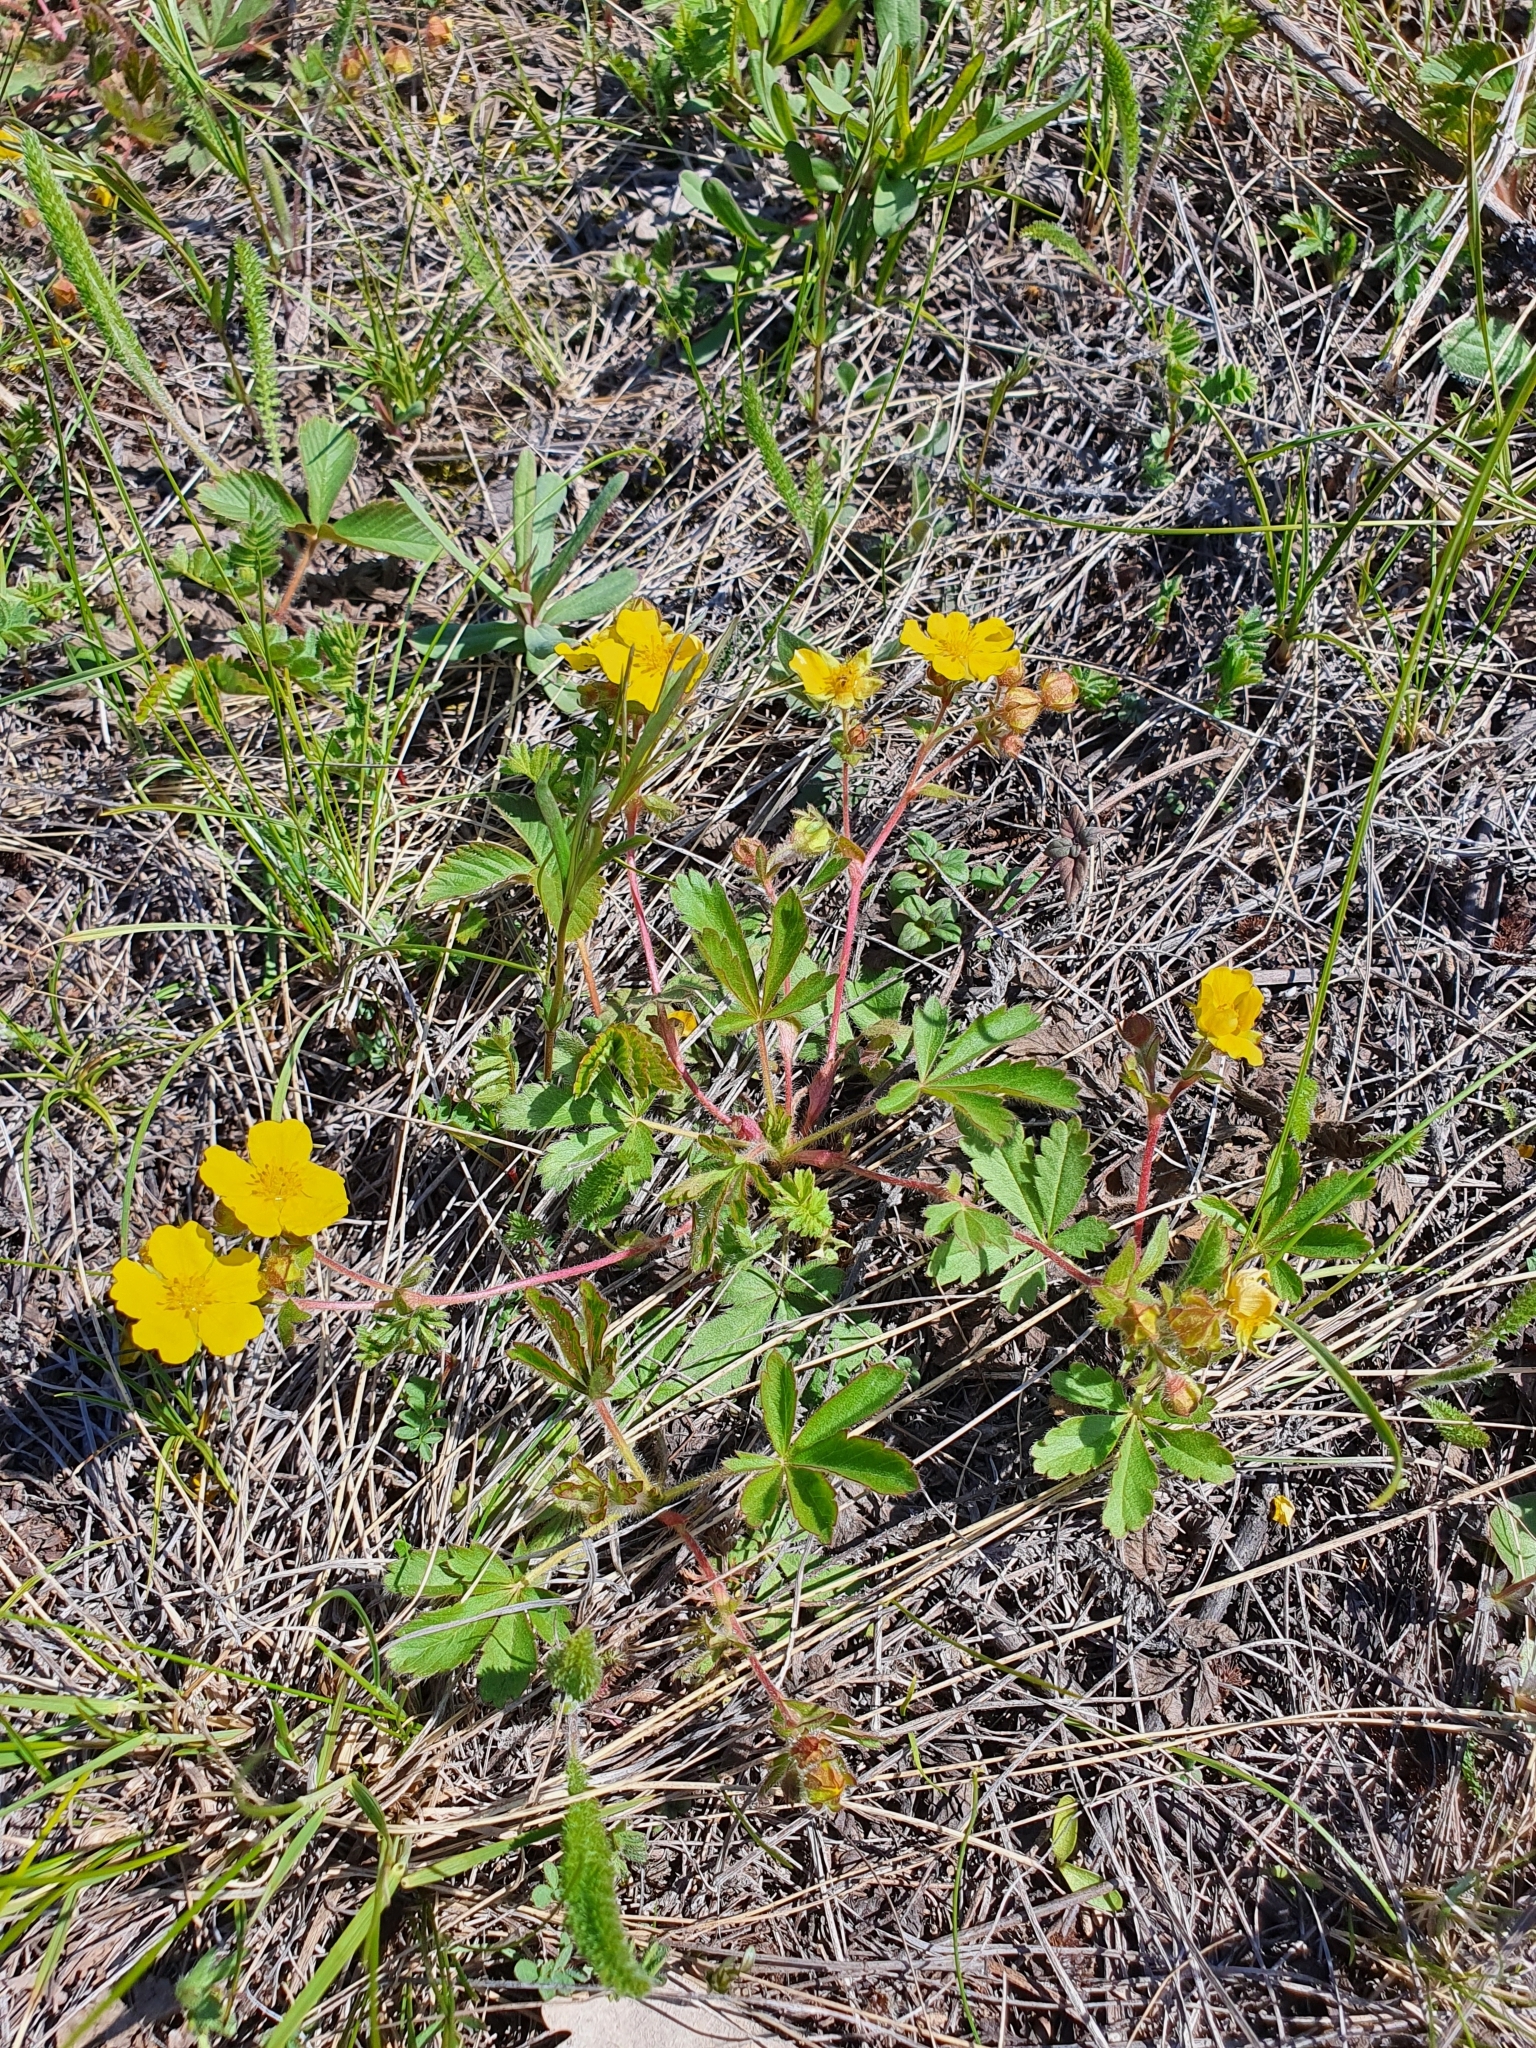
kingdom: Plantae
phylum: Tracheophyta
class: Magnoliopsida
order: Rosales
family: Rosaceae
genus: Potentilla
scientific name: Potentilla humifusa
